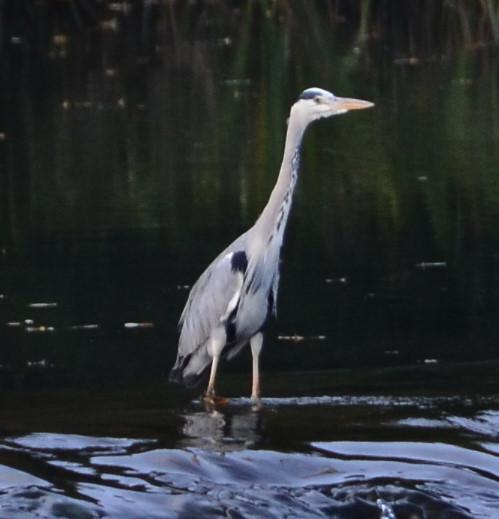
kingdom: Animalia
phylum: Chordata
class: Aves
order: Pelecaniformes
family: Ardeidae
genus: Ardea
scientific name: Ardea cinerea
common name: Grey heron
